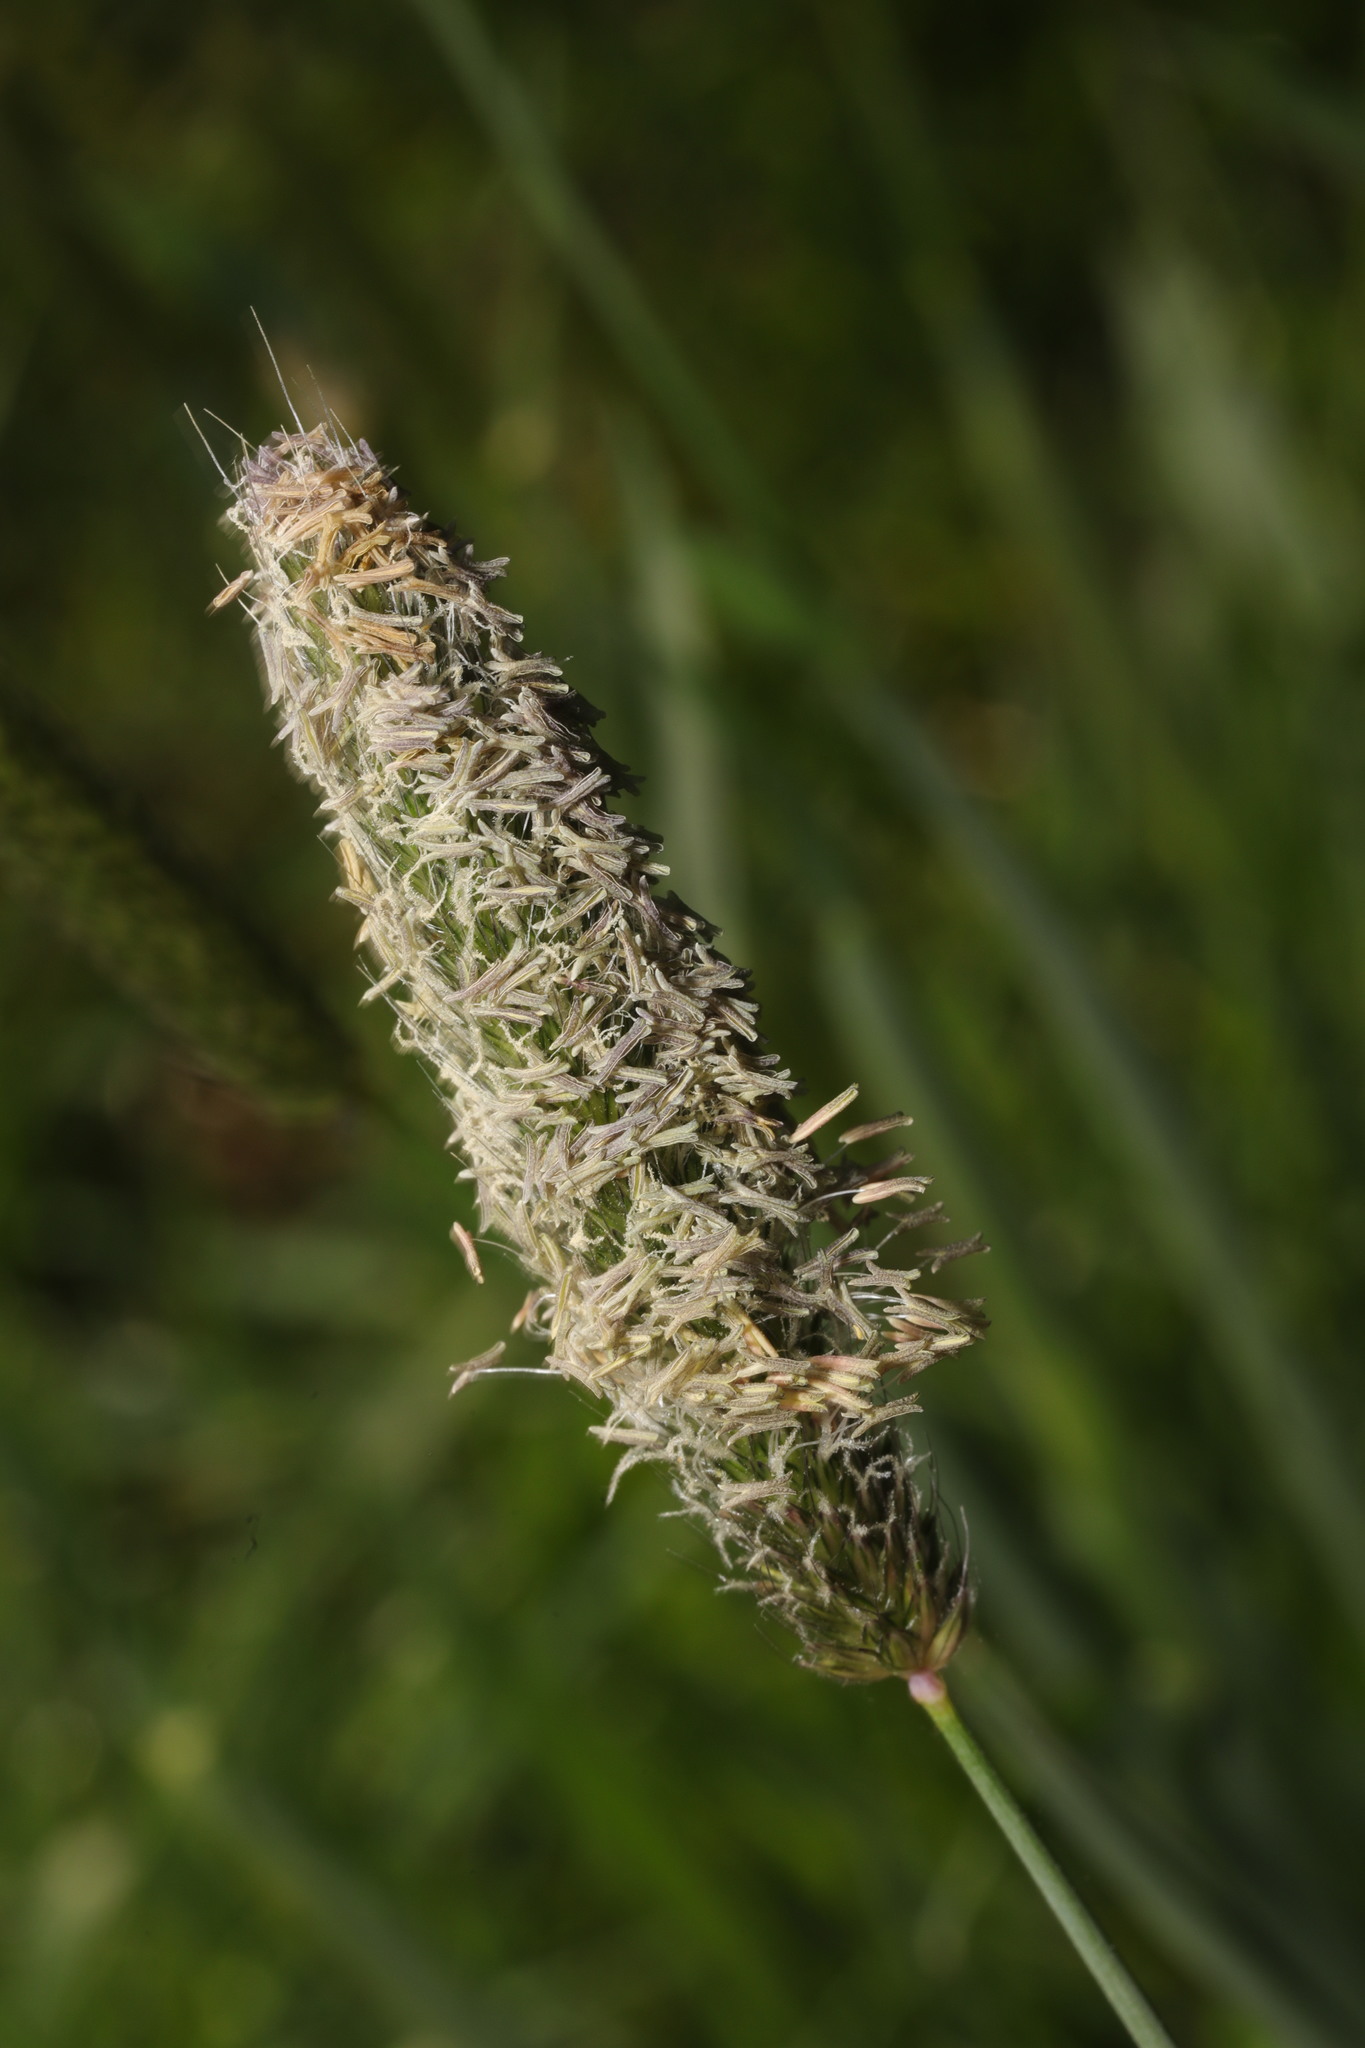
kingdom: Plantae
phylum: Tracheophyta
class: Liliopsida
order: Poales
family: Poaceae
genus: Alopecurus
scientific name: Alopecurus pratensis
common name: Meadow foxtail
